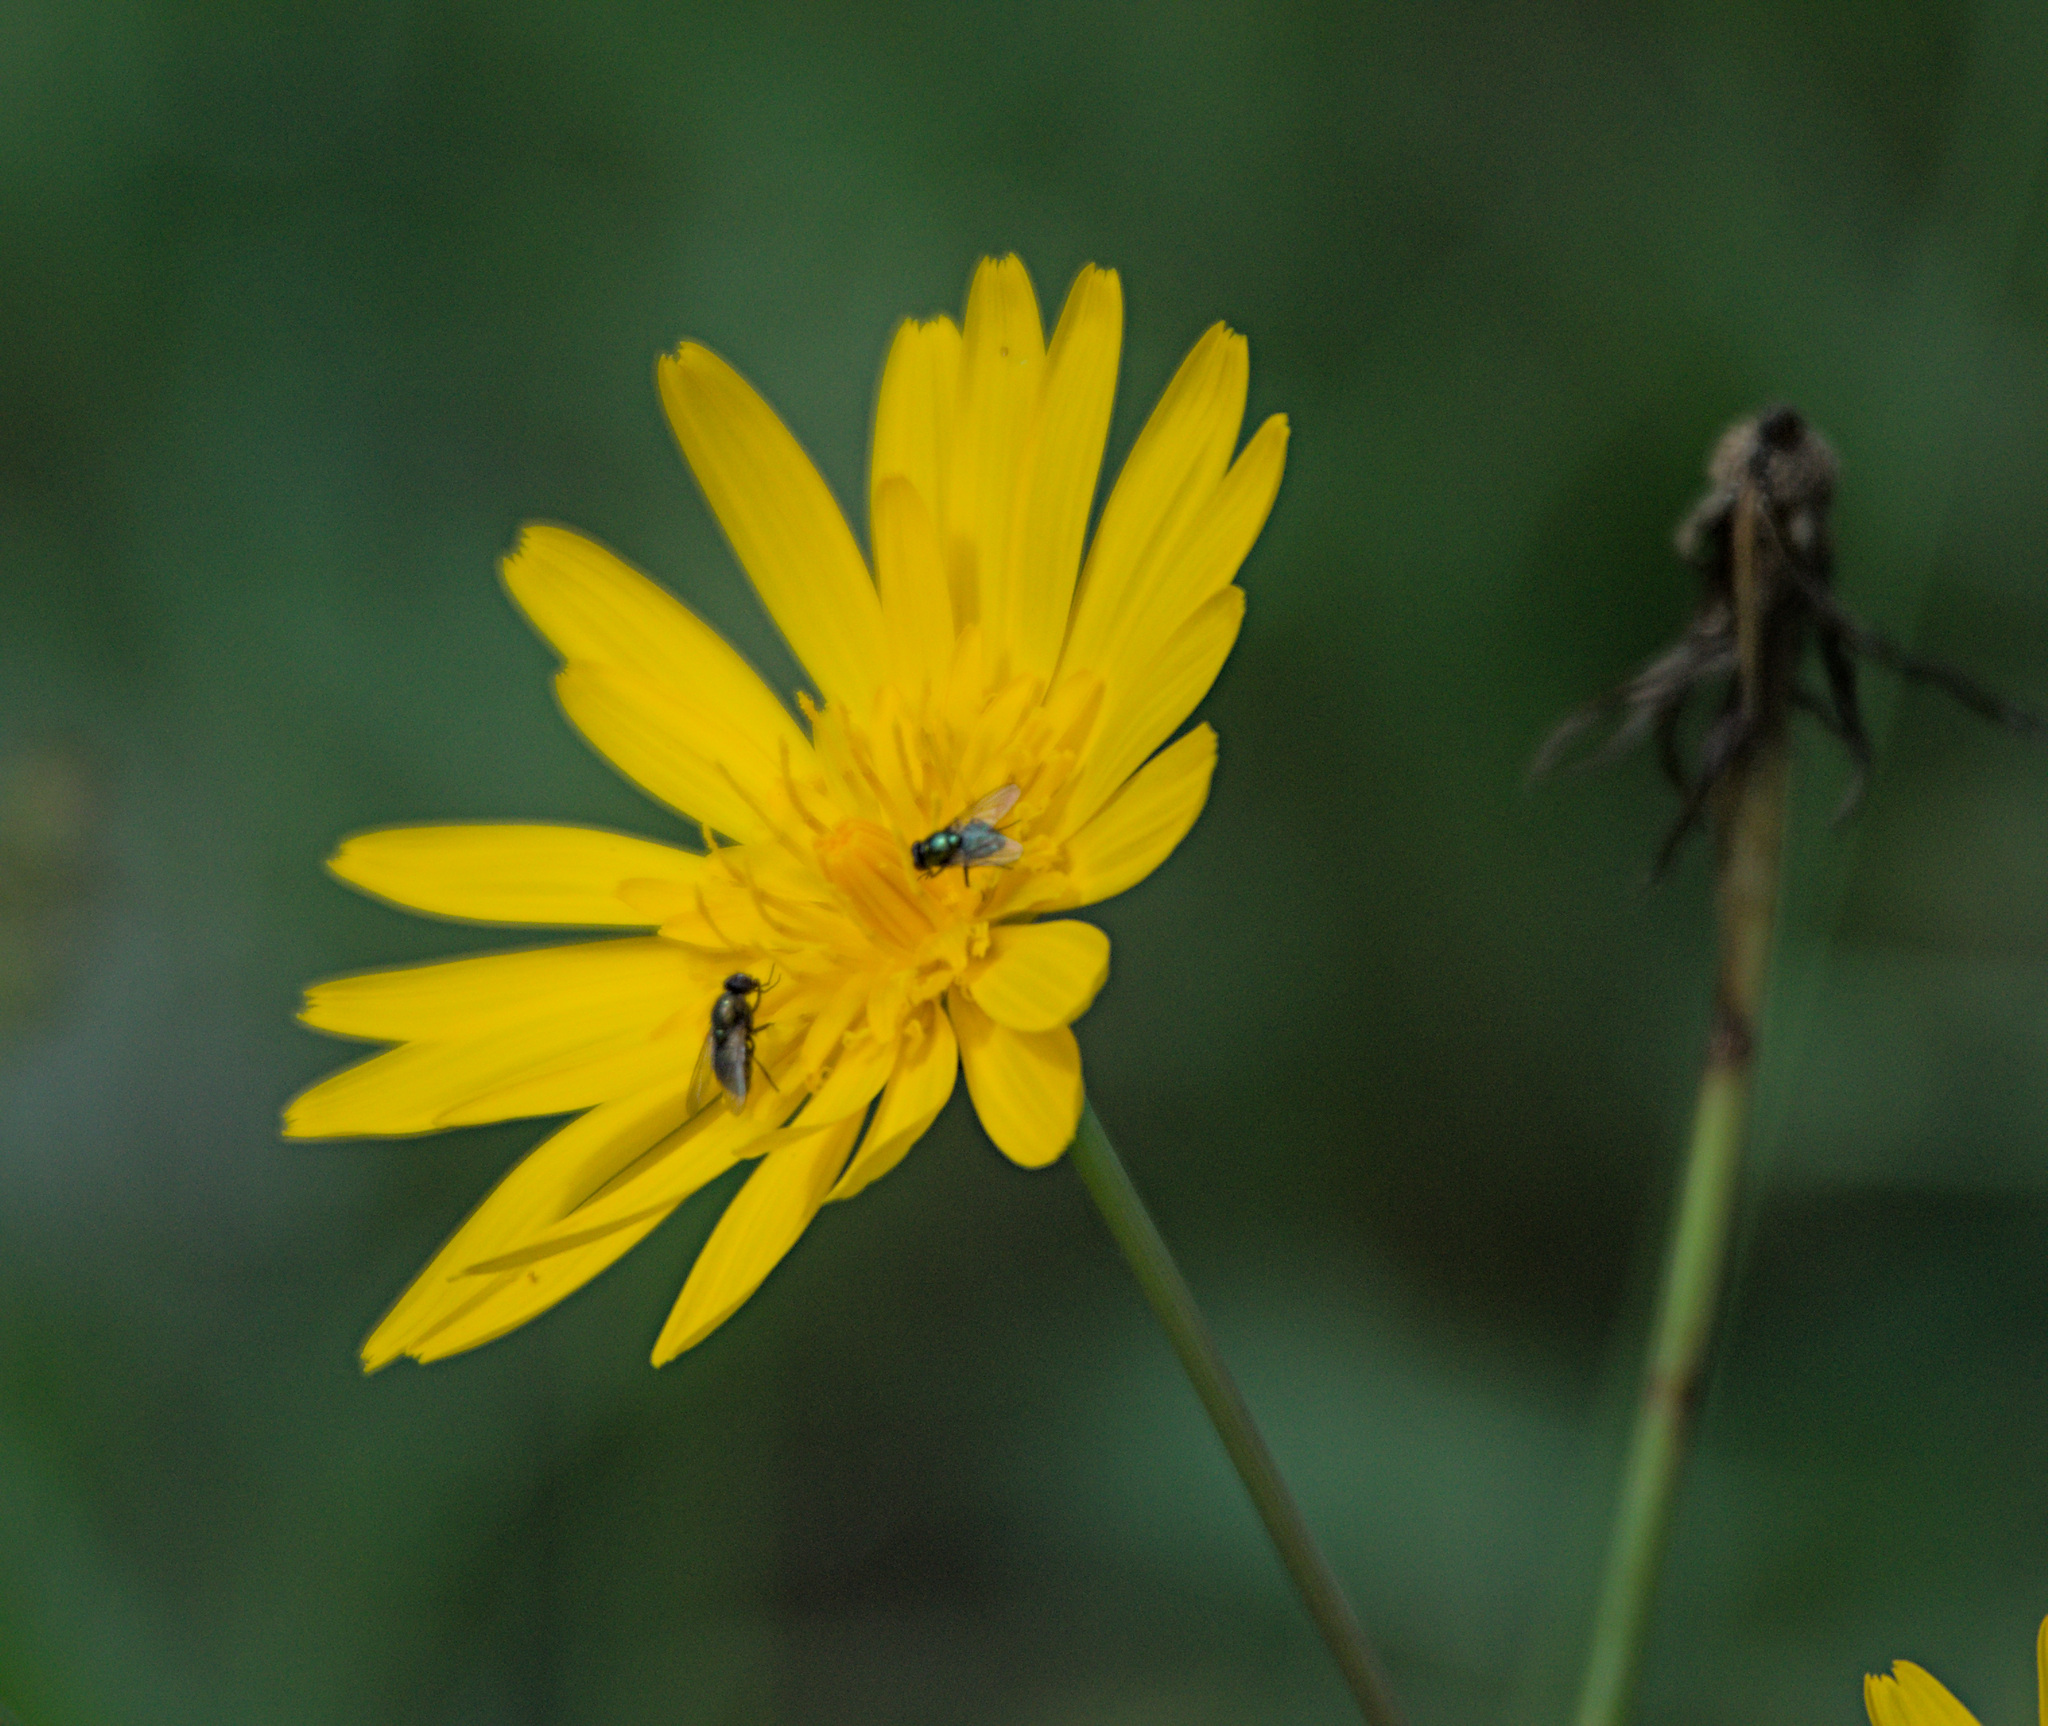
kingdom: Plantae
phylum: Tracheophyta
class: Magnoliopsida
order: Asterales
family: Asteraceae
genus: Tragopogon
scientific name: Tragopogon orientalis
